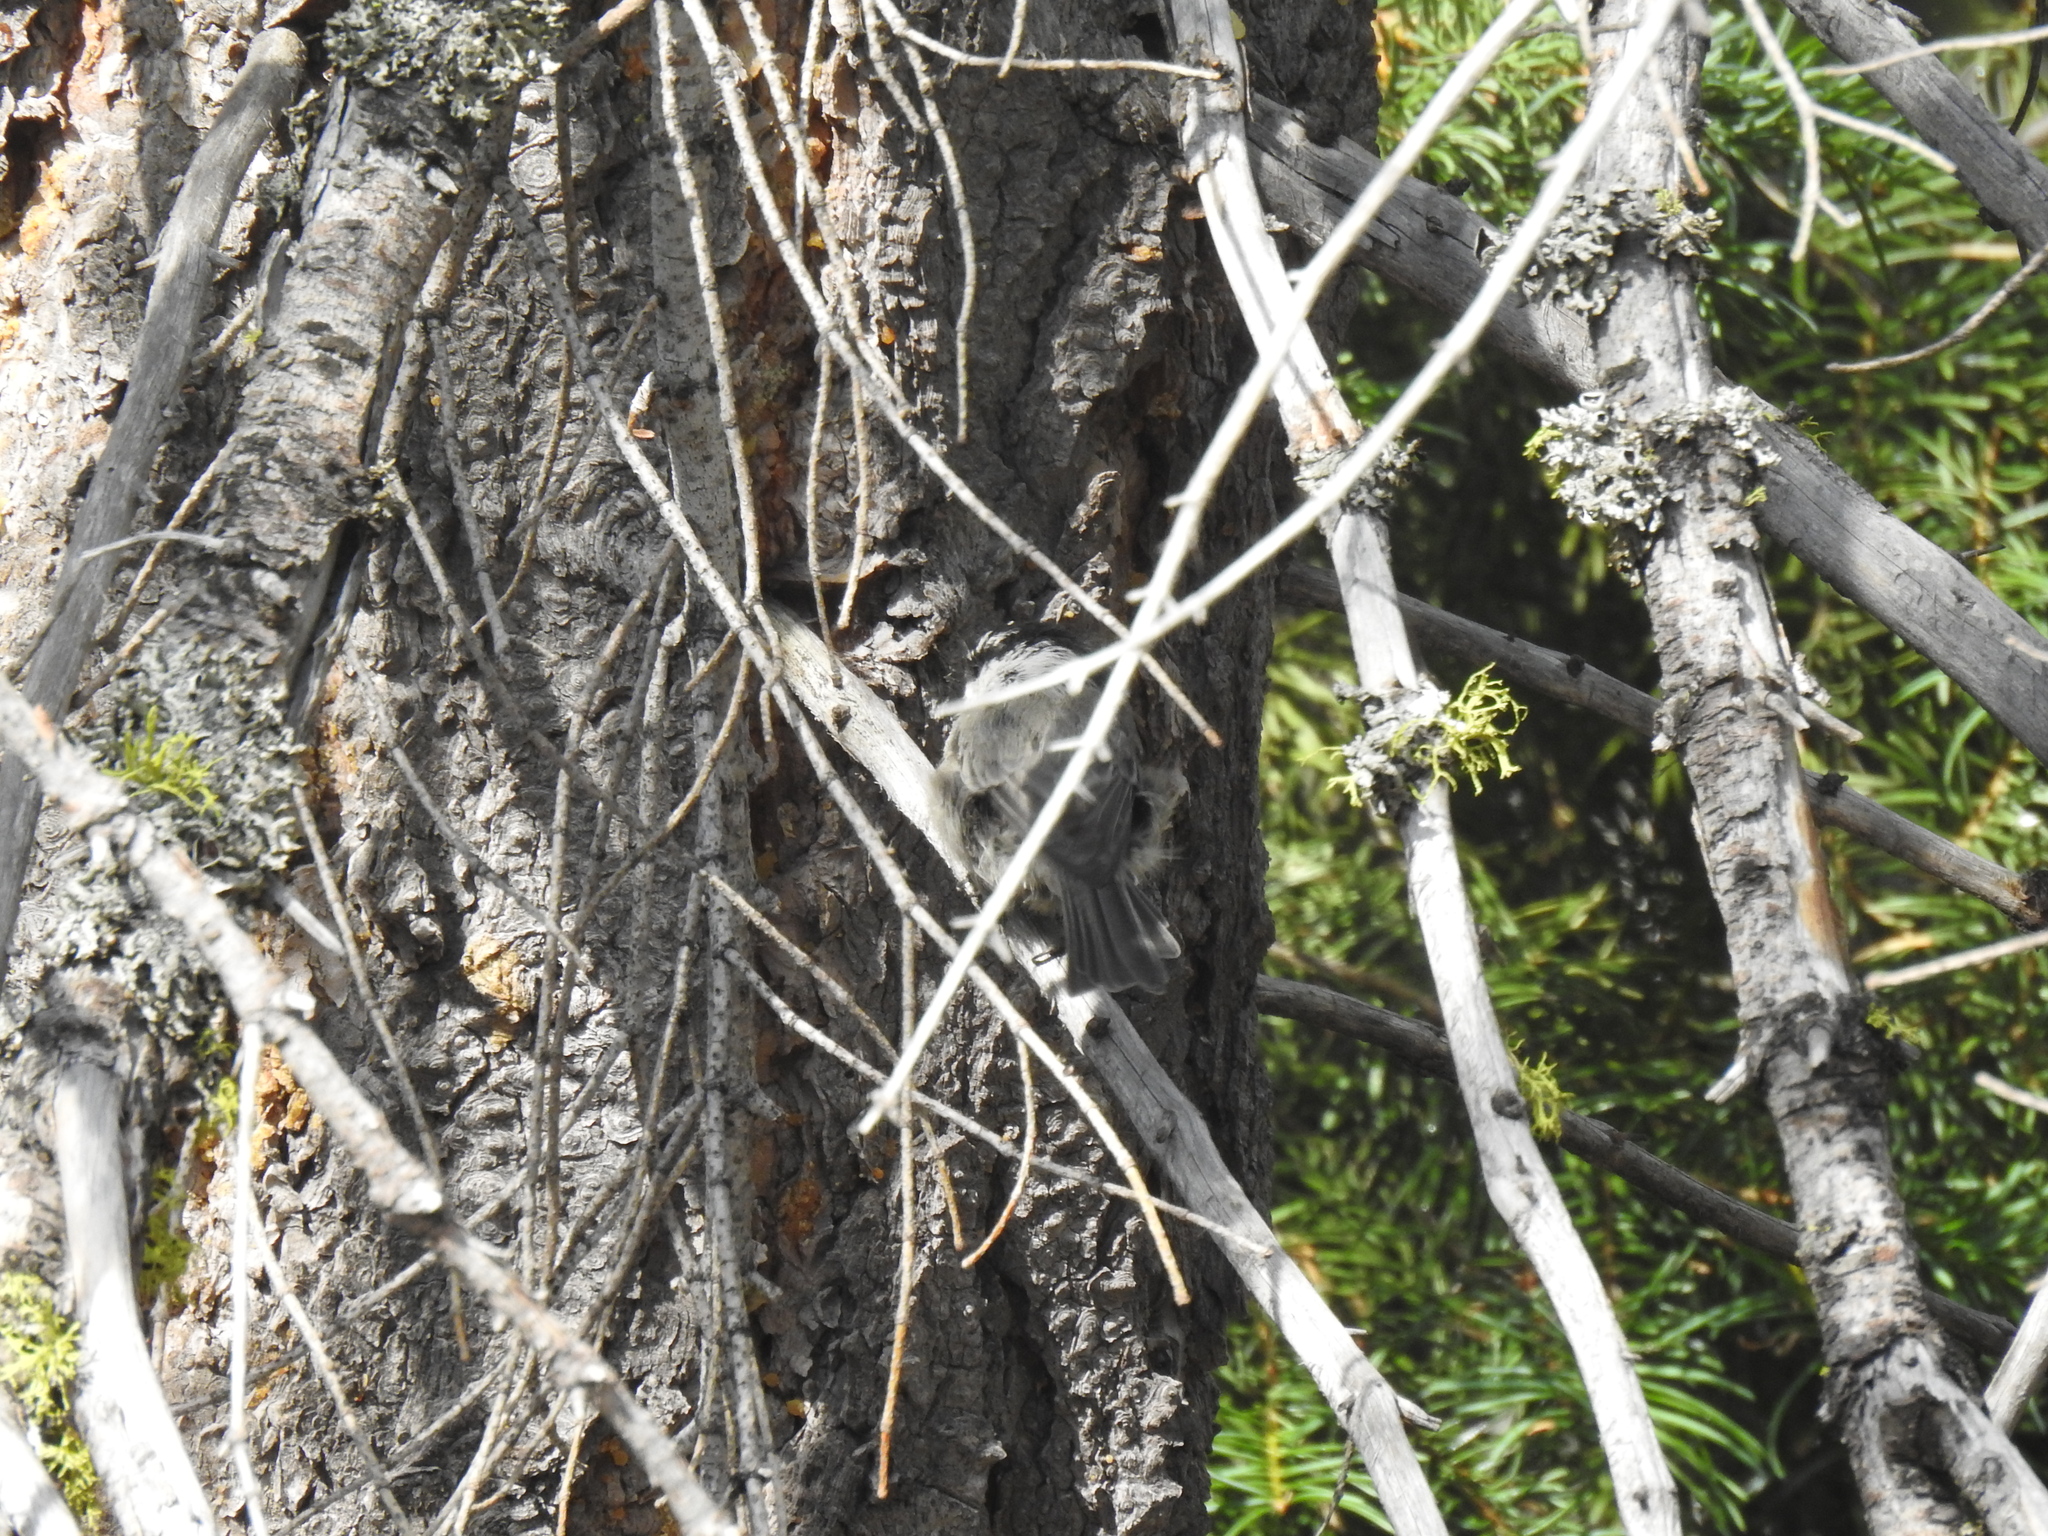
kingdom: Animalia
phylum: Chordata
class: Aves
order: Passeriformes
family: Paridae
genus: Poecile
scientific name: Poecile gambeli
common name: Mountain chickadee
